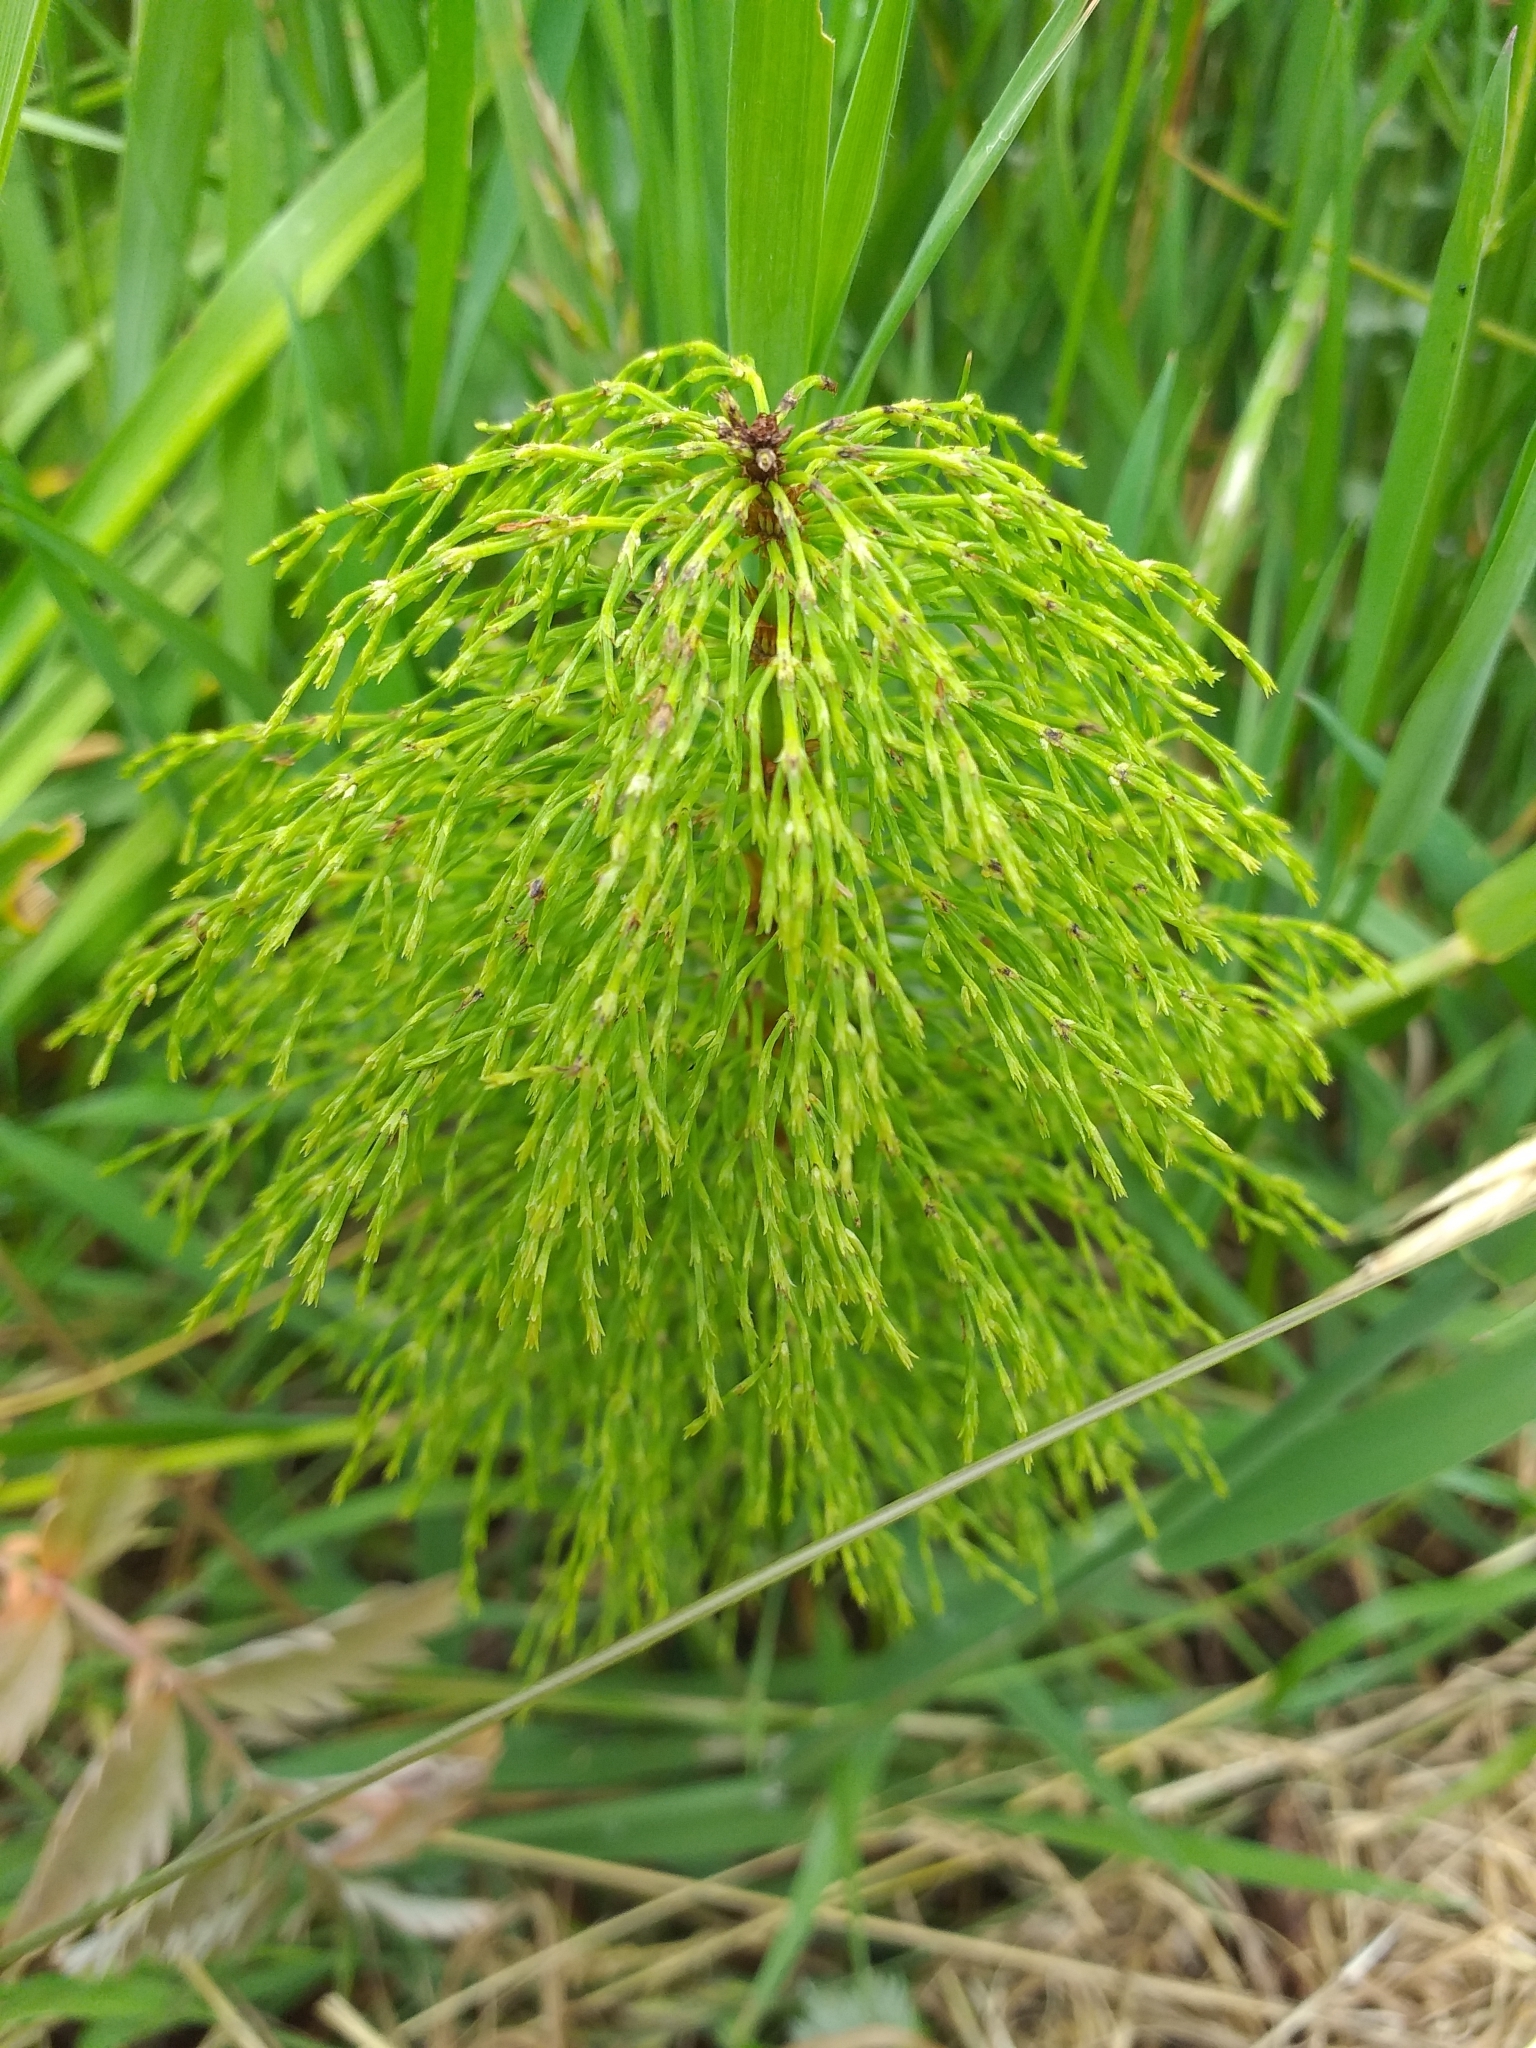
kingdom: Plantae
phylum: Tracheophyta
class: Polypodiopsida
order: Equisetales
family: Equisetaceae
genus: Equisetum
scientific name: Equisetum sylvaticum
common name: Wood horsetail
